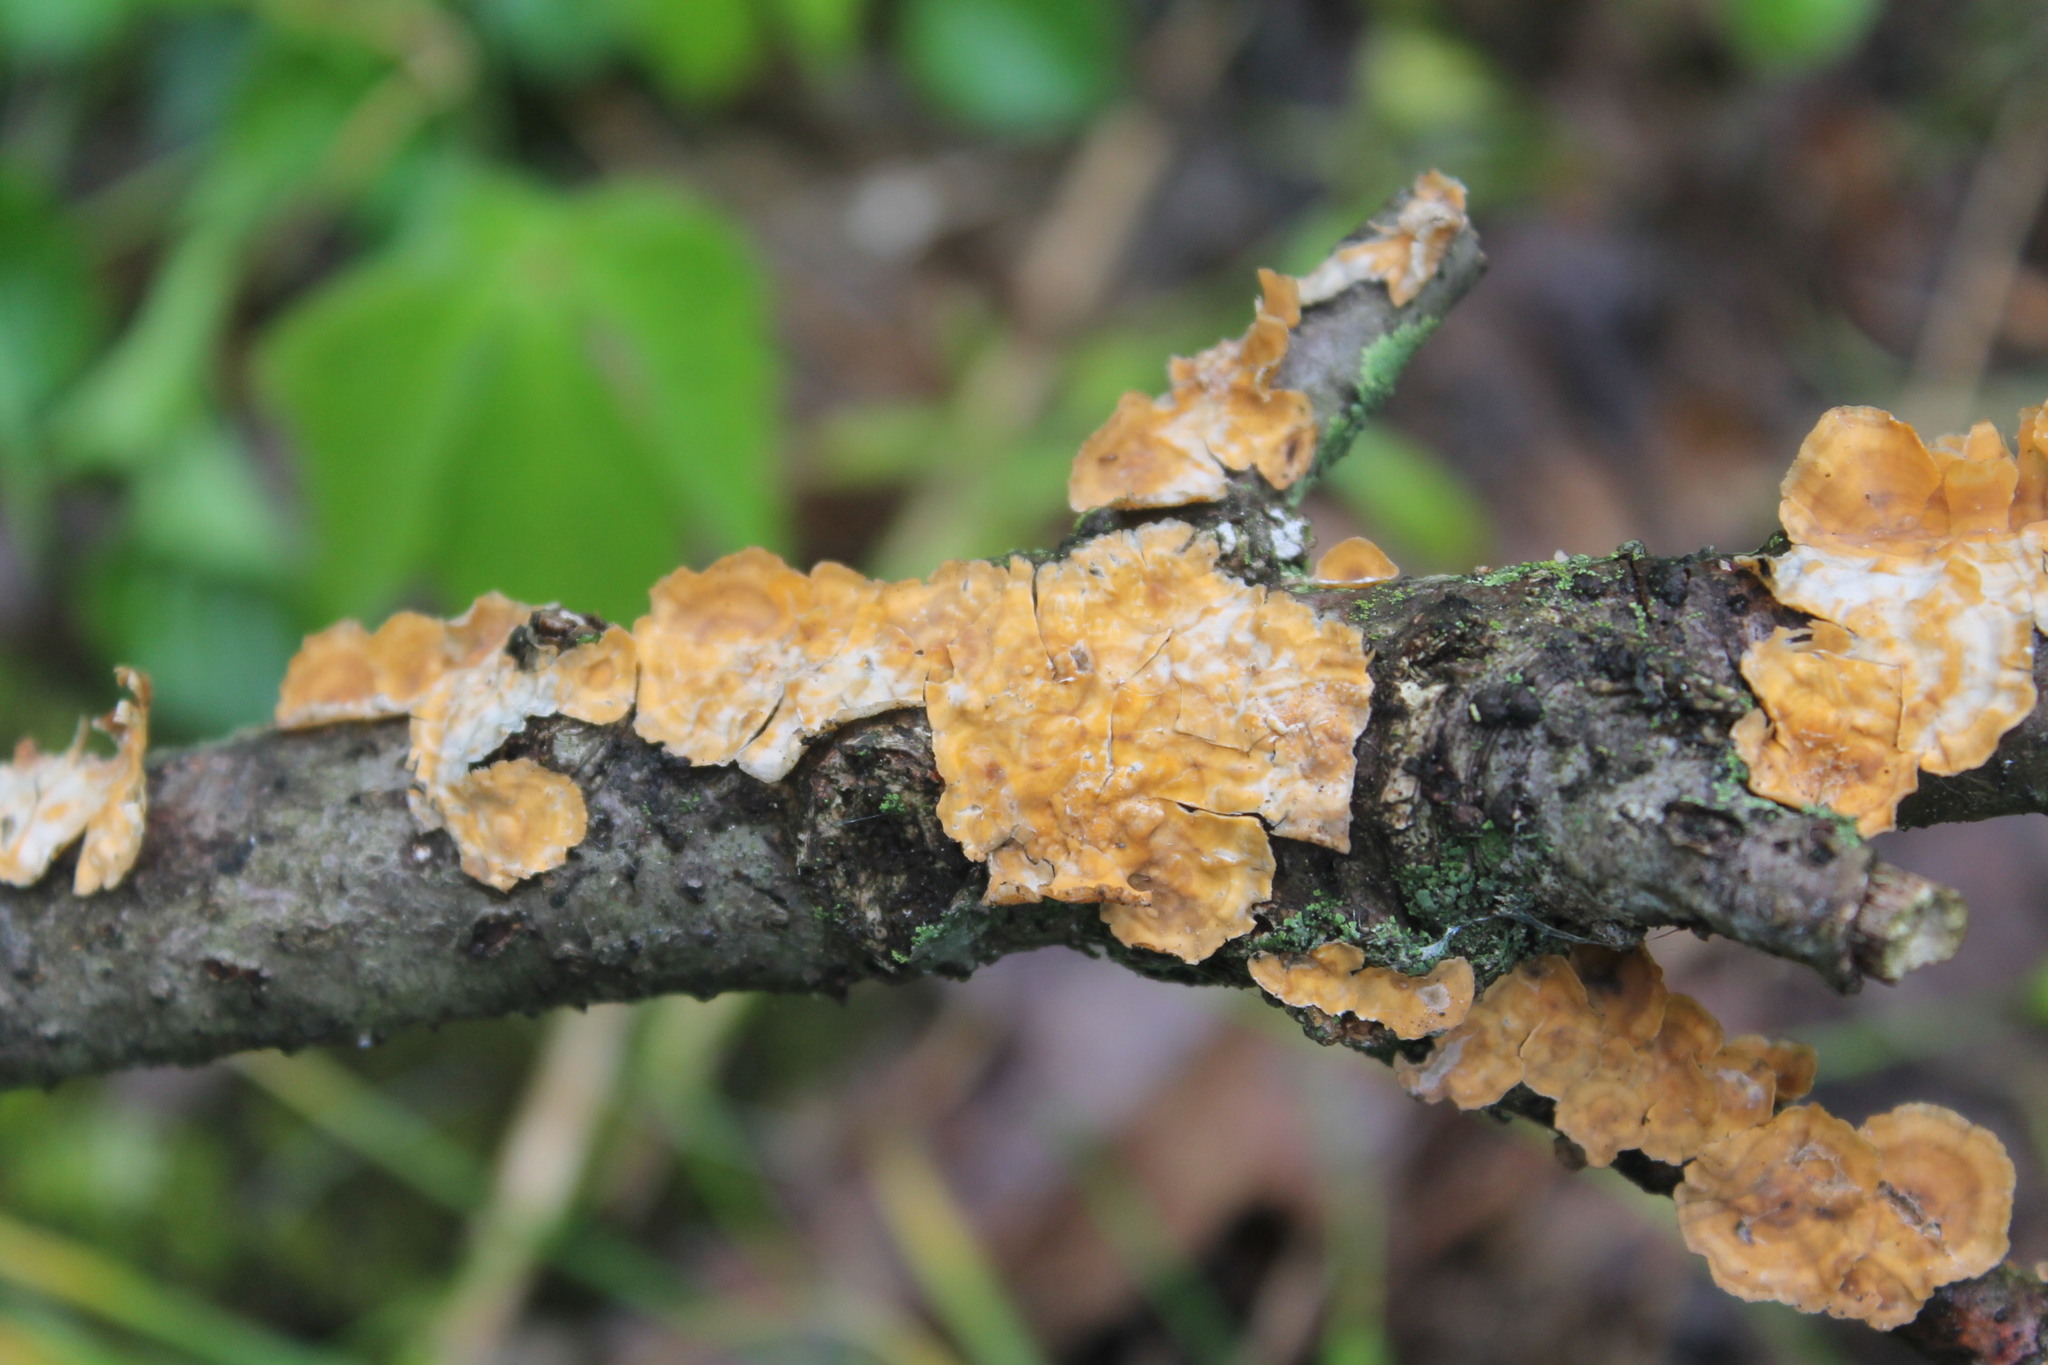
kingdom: Fungi
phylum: Basidiomycota
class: Agaricomycetes
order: Russulales
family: Stereaceae
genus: Stereum
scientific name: Stereum complicatum
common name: Crowded parchment
